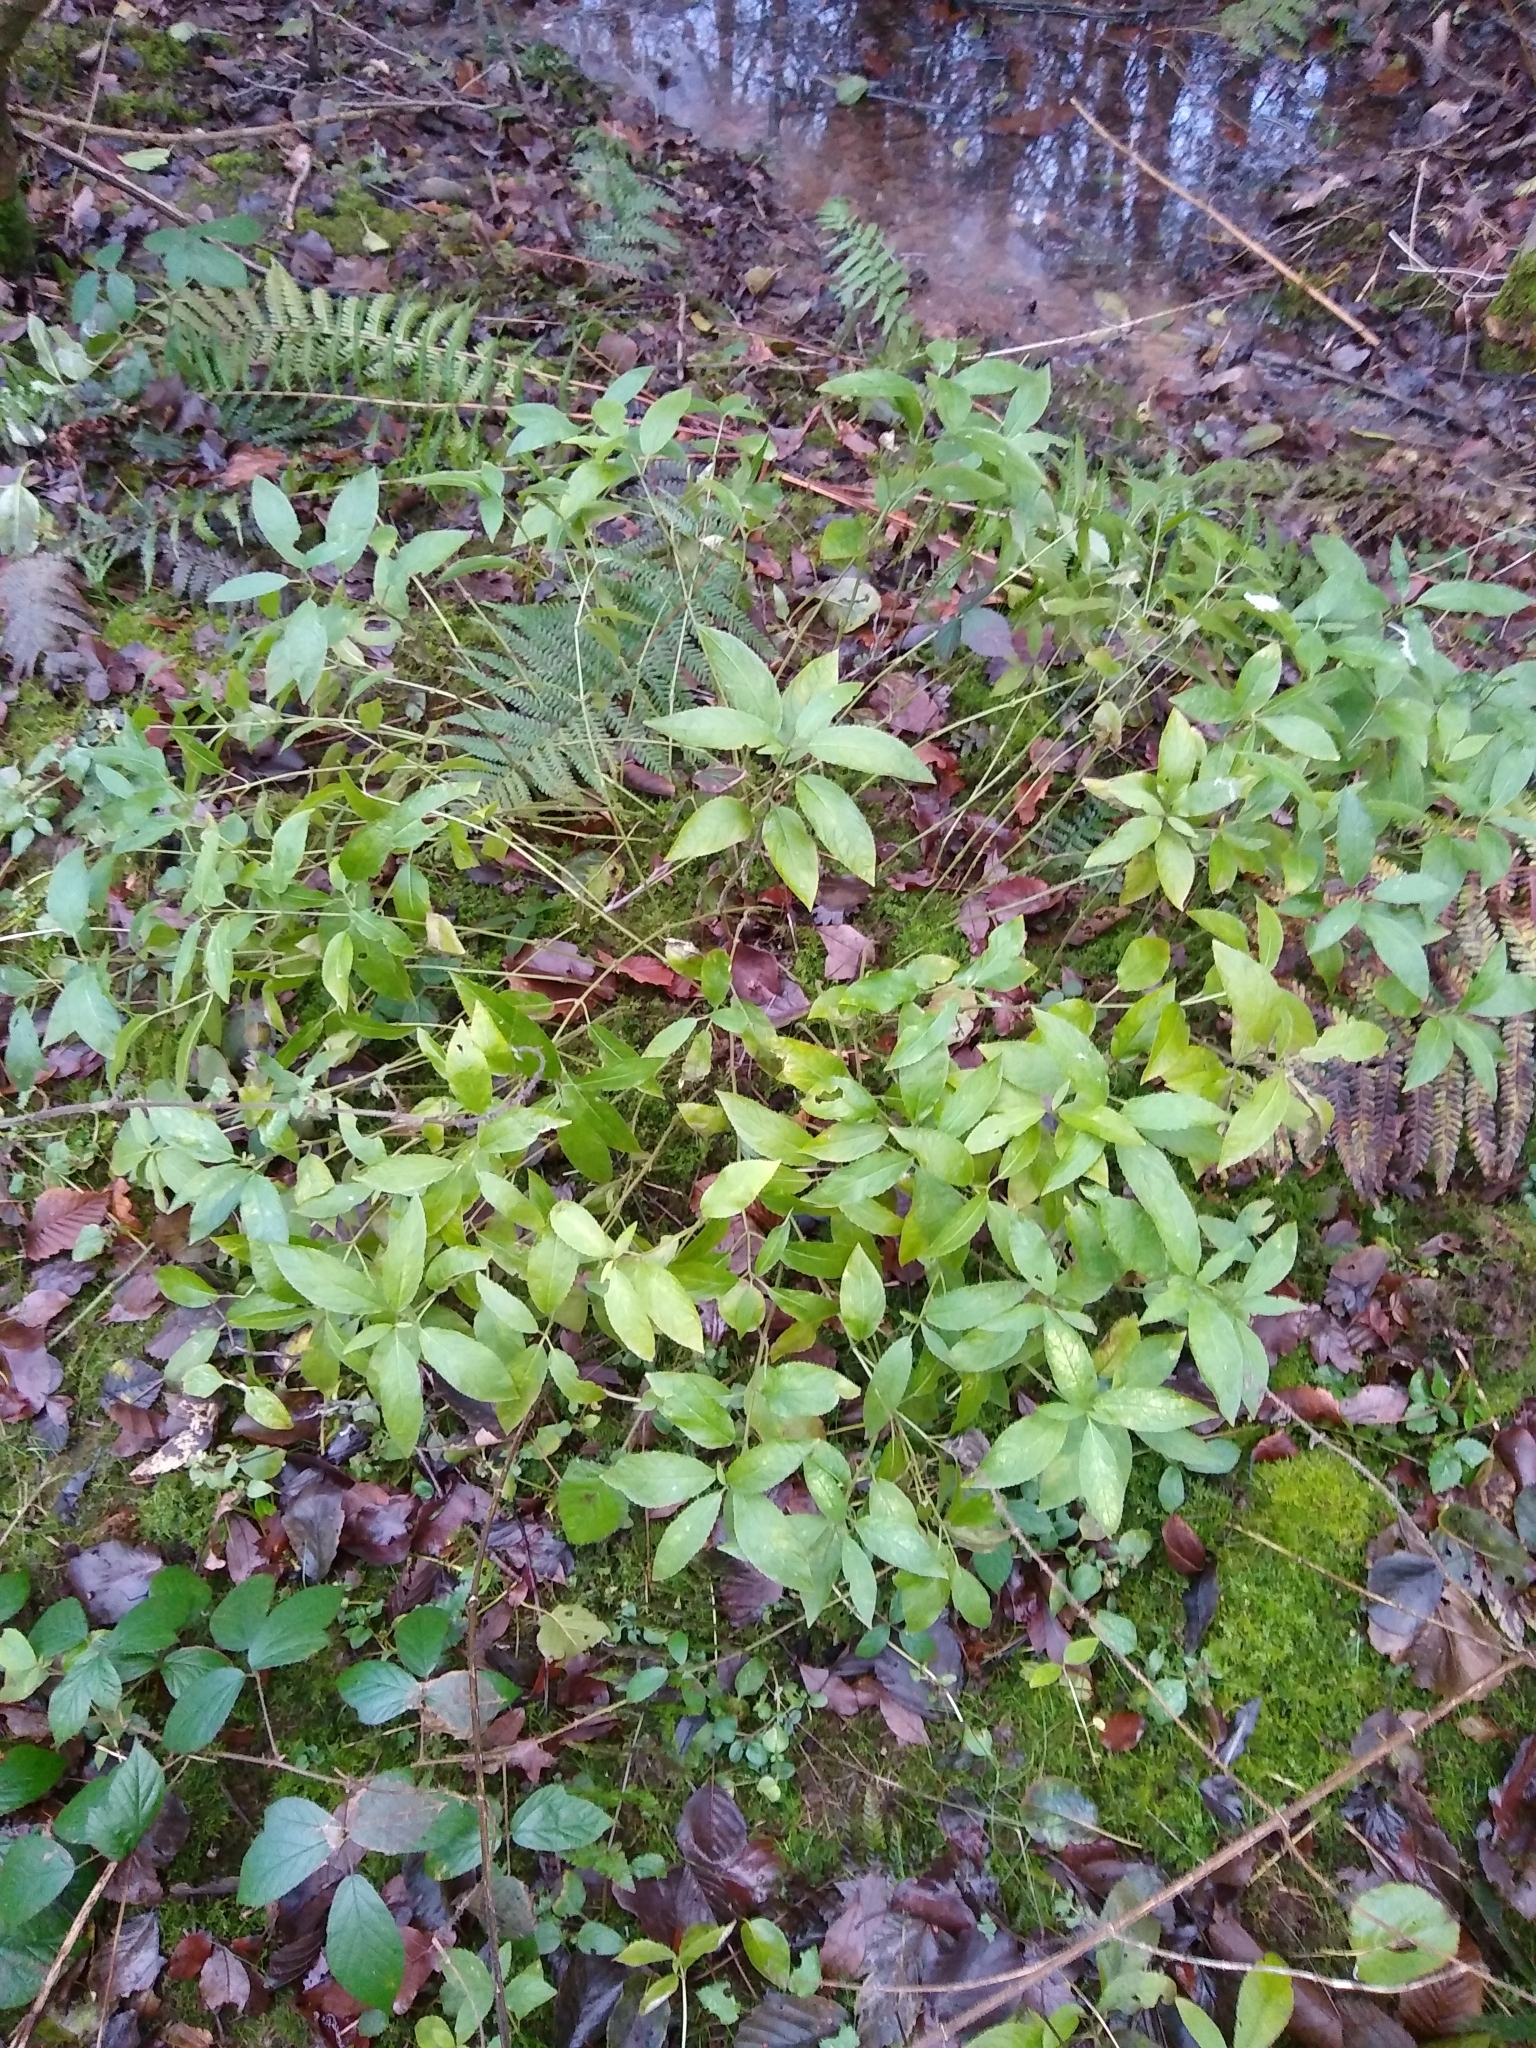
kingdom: Plantae
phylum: Tracheophyta
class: Magnoliopsida
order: Malpighiales
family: Euphorbiaceae
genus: Mercurialis
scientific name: Mercurialis perennis
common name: Dog mercury
